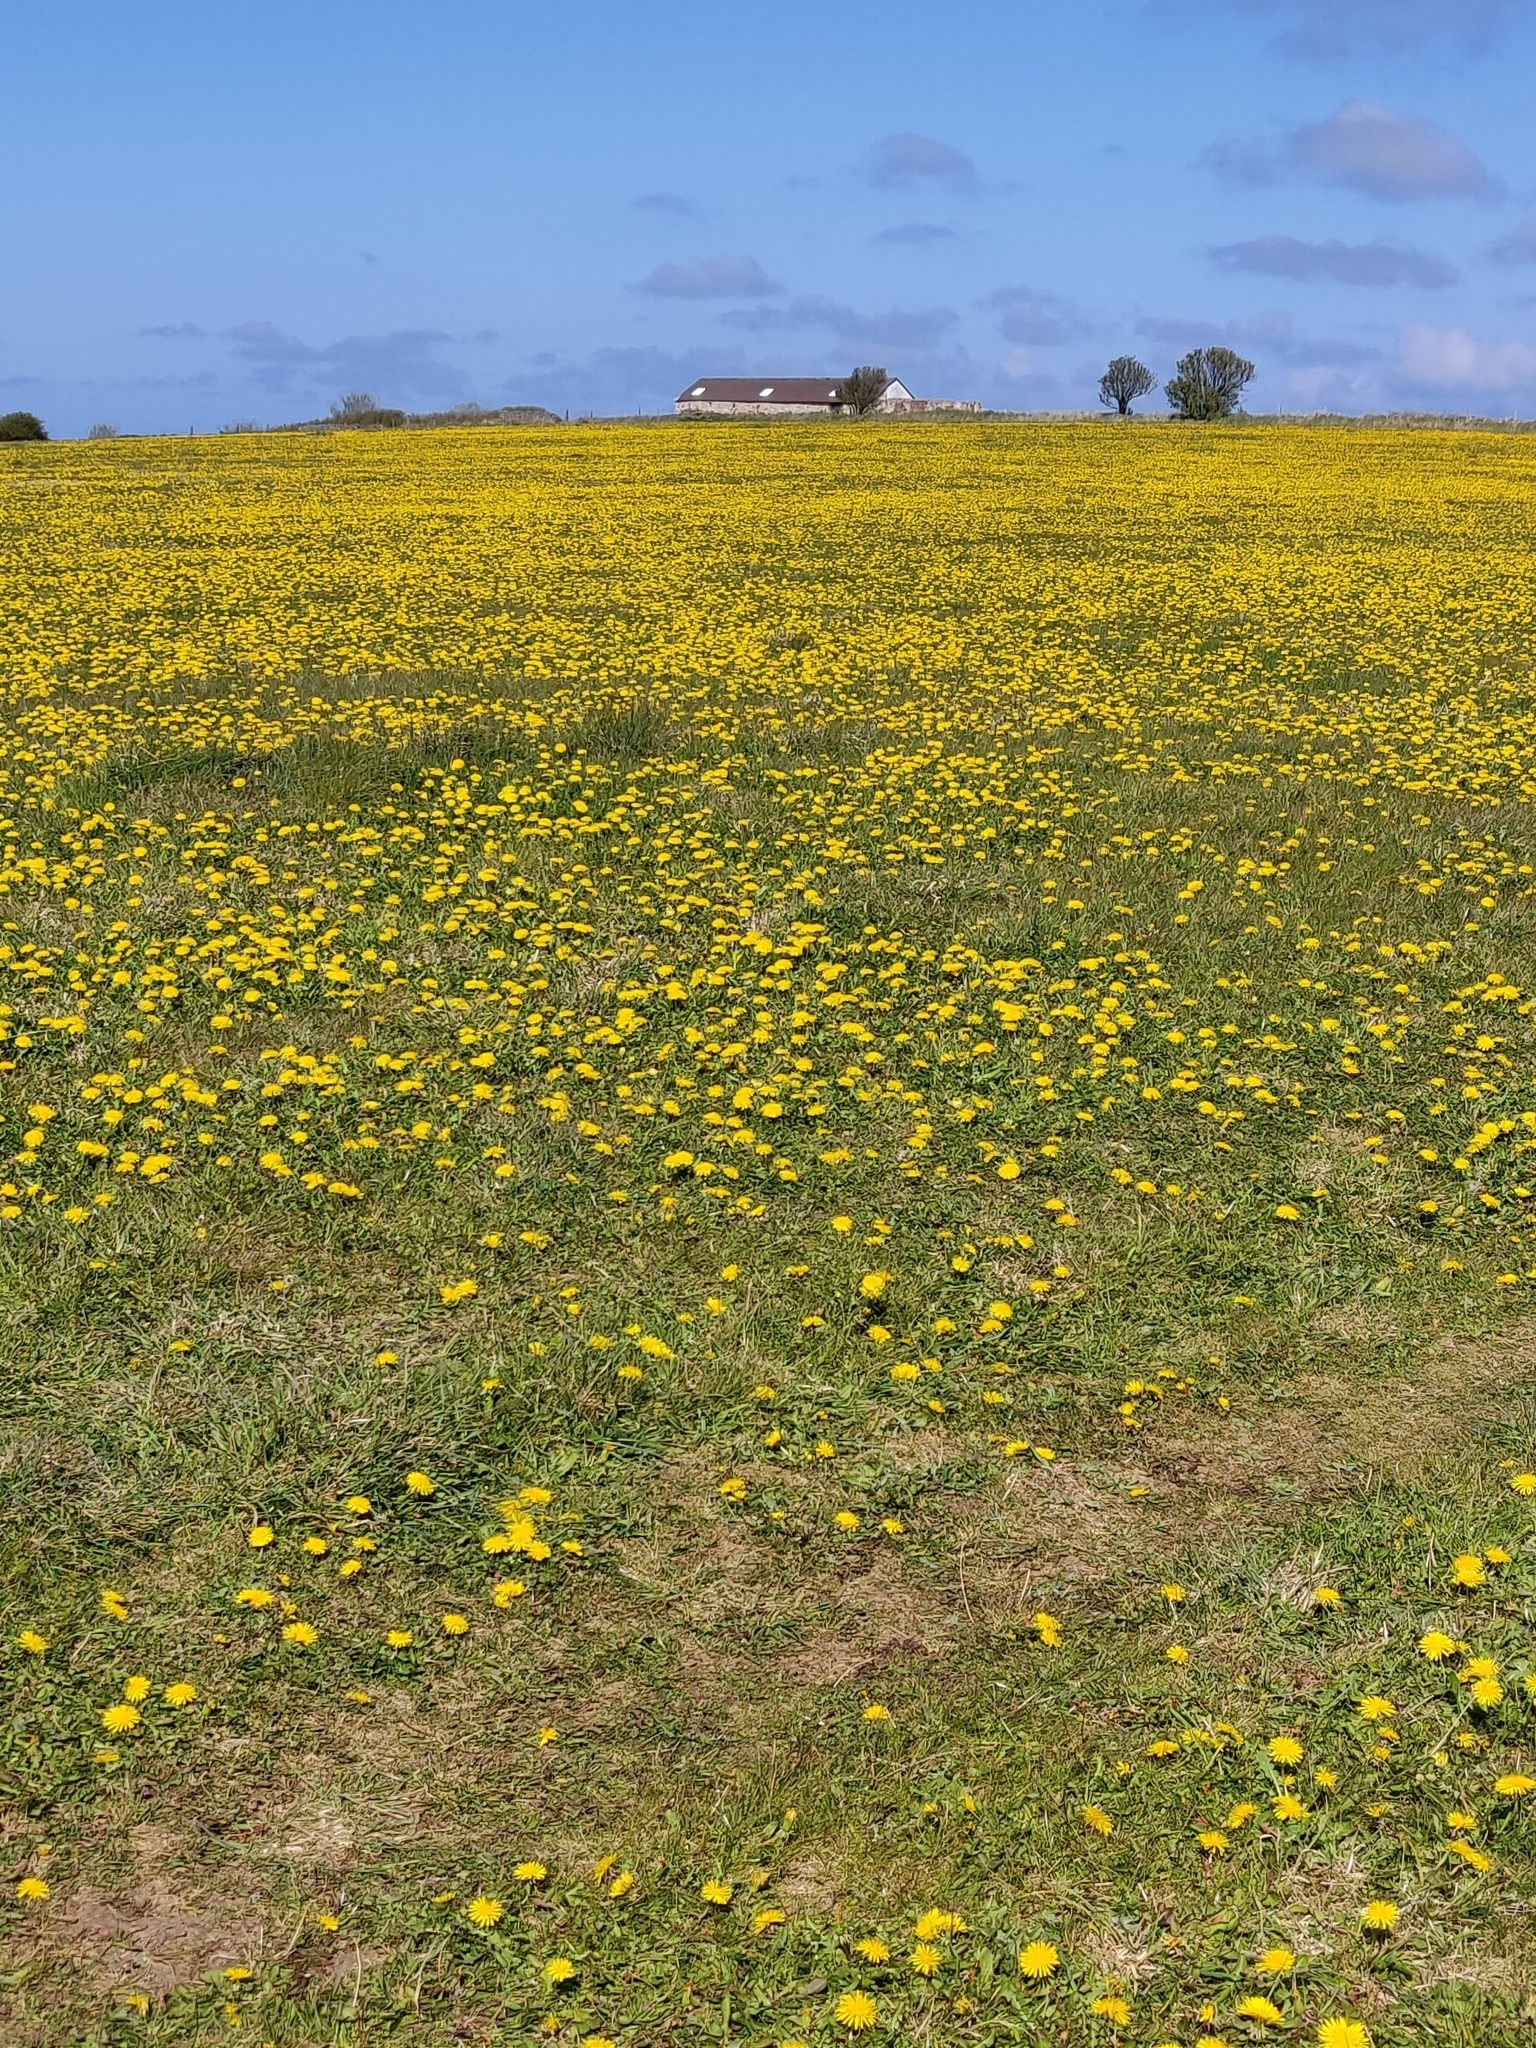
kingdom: Plantae
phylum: Tracheophyta
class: Magnoliopsida
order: Asterales
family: Asteraceae
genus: Taraxacum
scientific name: Taraxacum officinale
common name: Common dandelion
